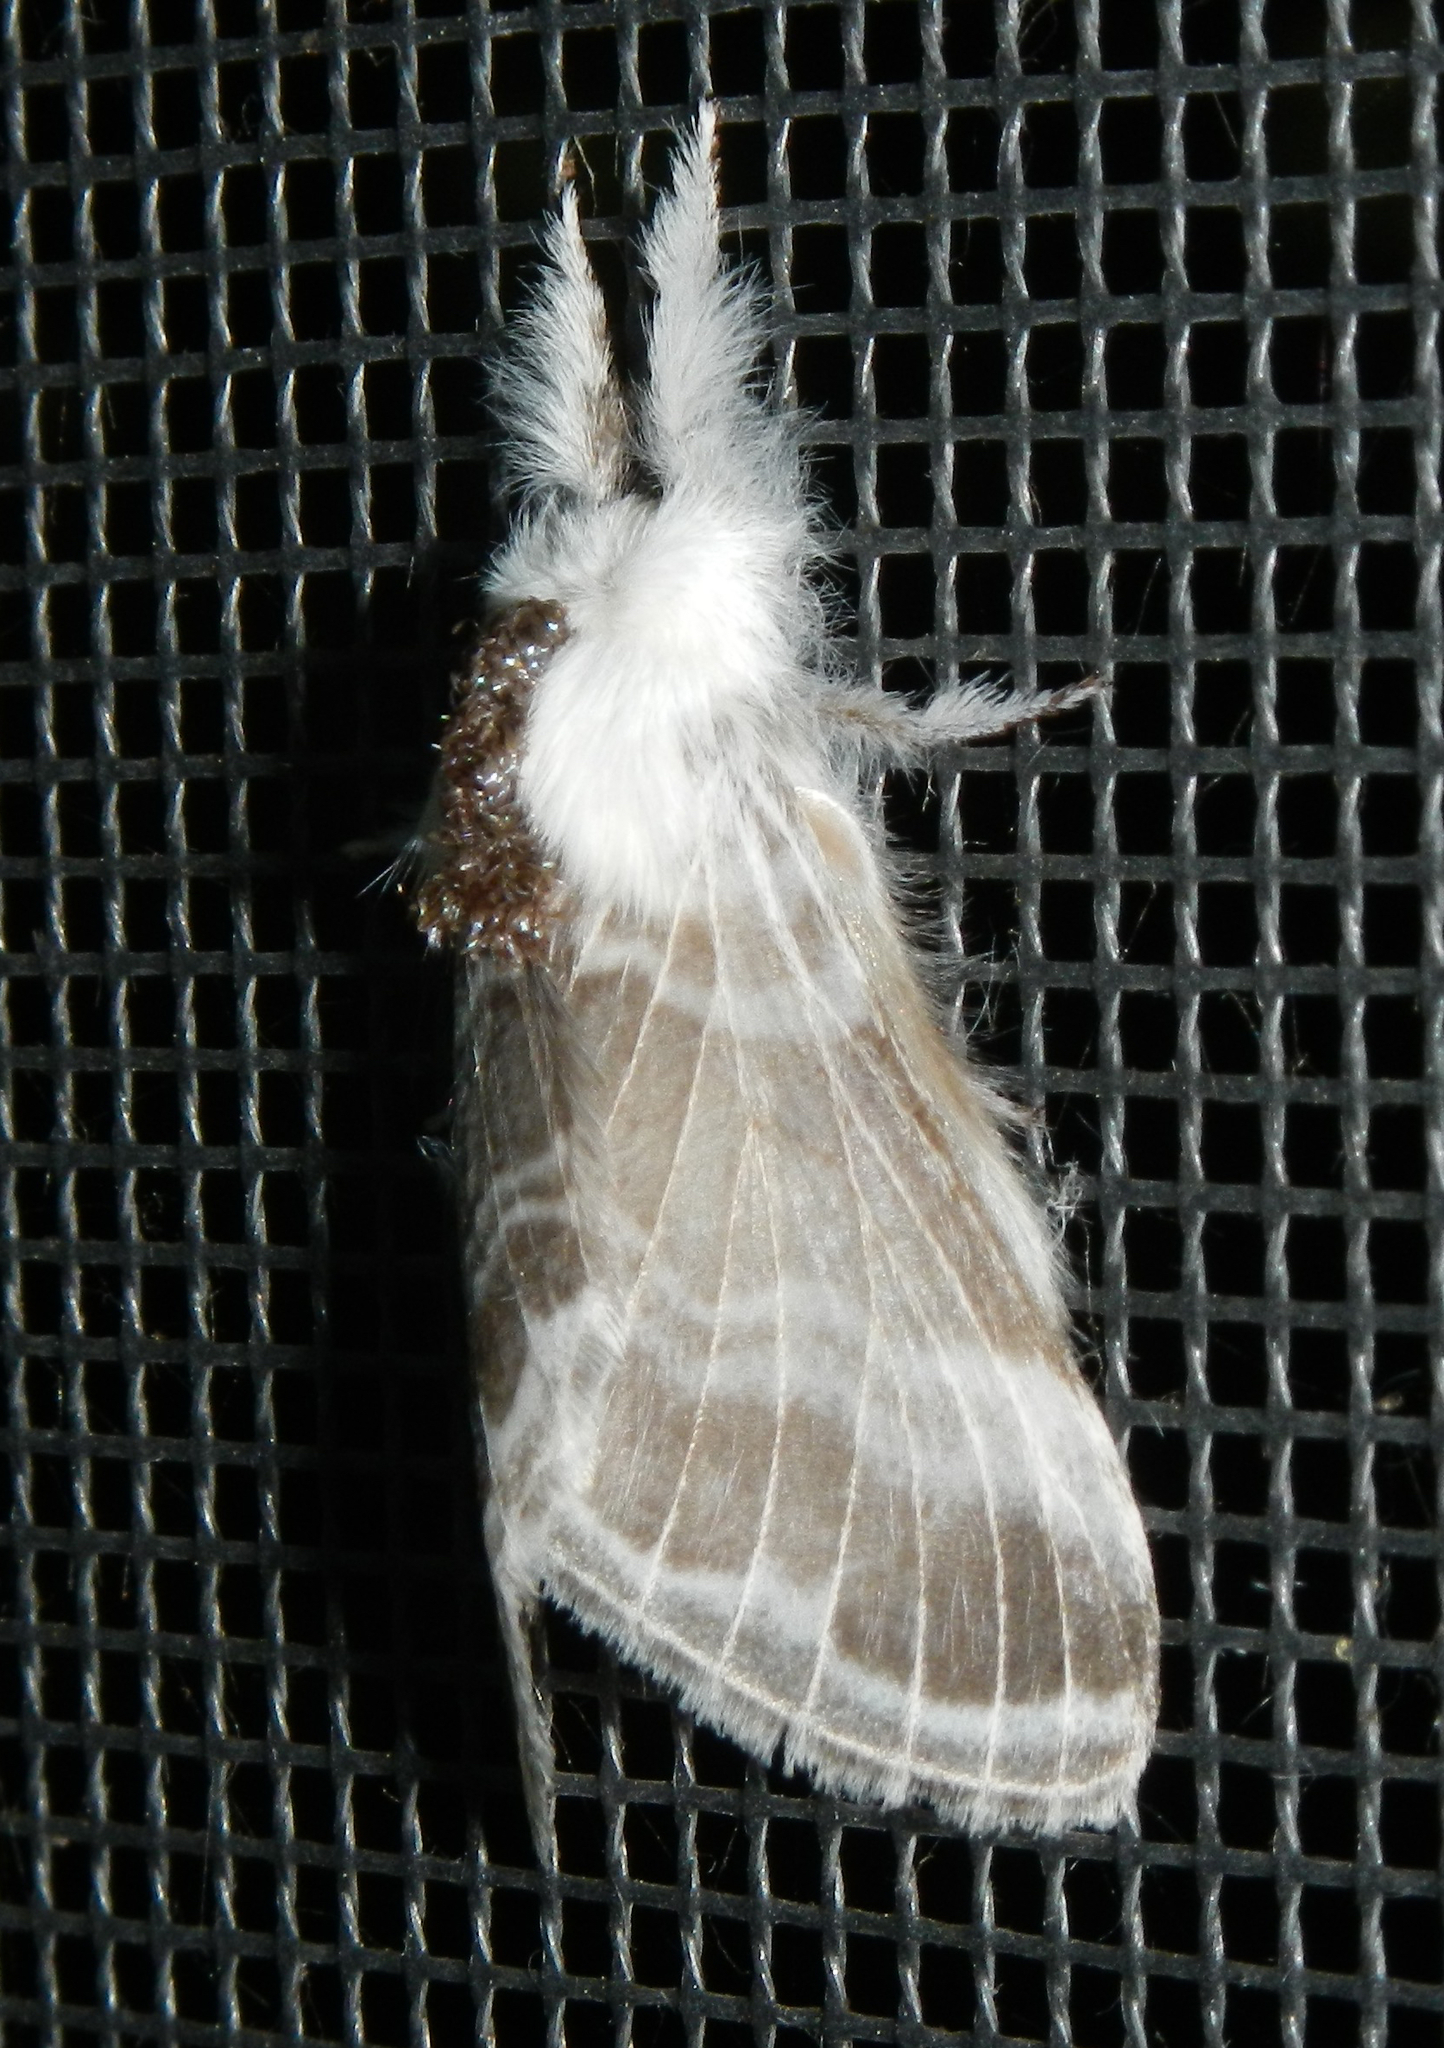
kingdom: Animalia
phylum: Arthropoda
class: Insecta
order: Lepidoptera
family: Lasiocampidae
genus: Tolype
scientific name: Tolype velleda
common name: Large tolype moth
